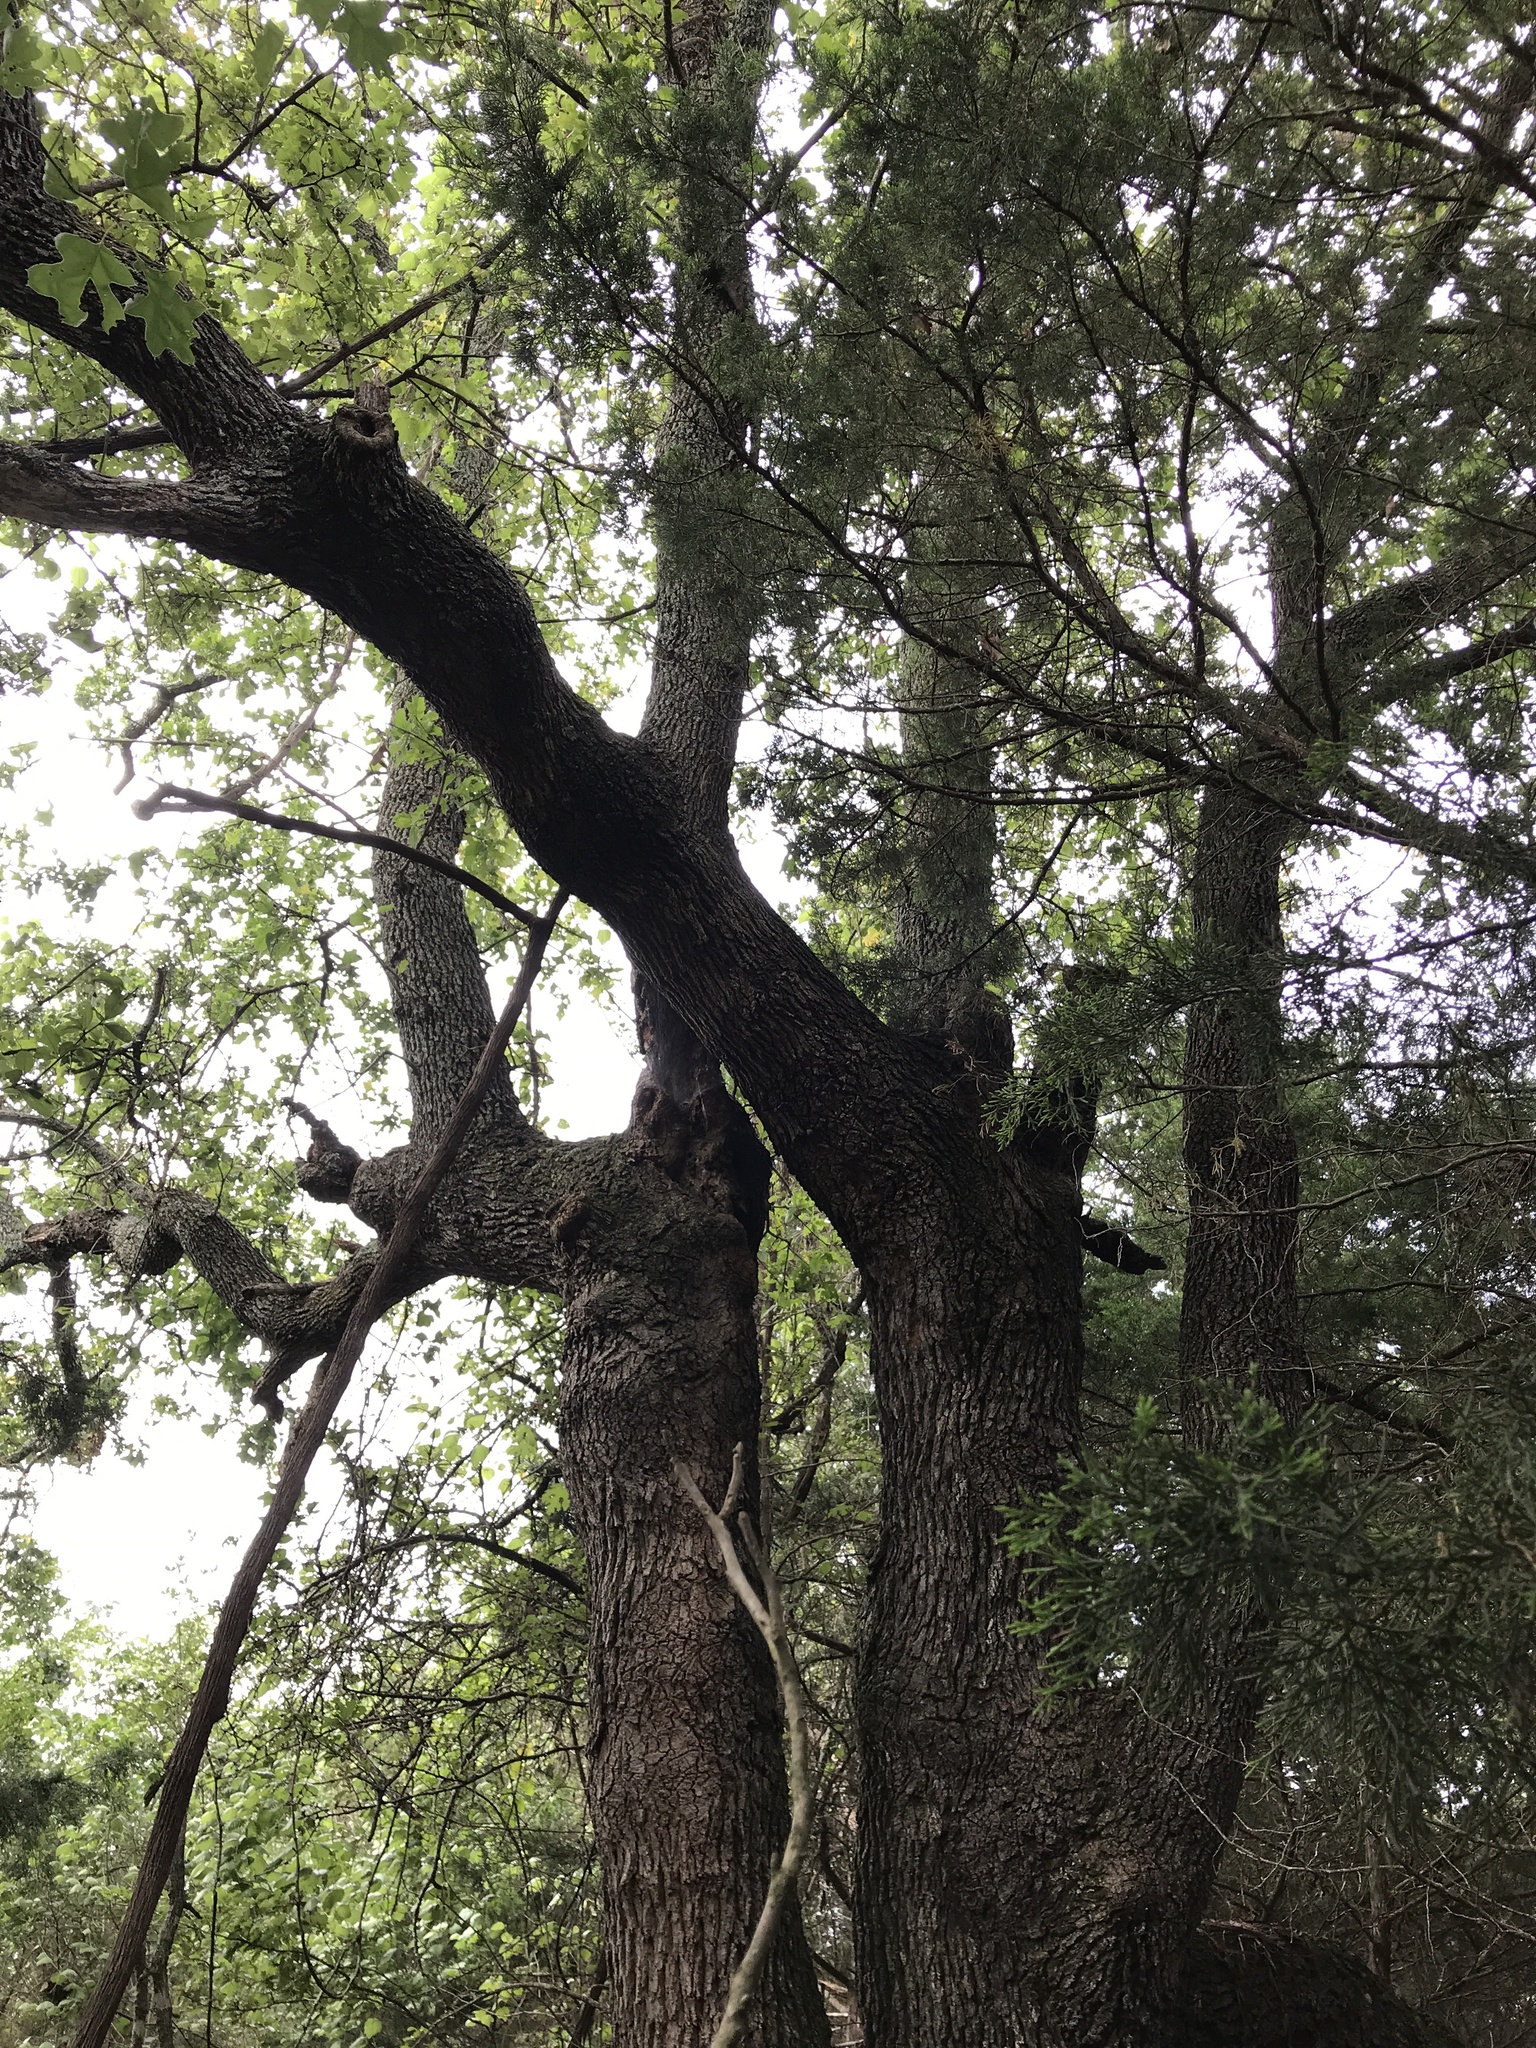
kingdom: Plantae
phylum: Tracheophyta
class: Magnoliopsida
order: Fagales
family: Fagaceae
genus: Quercus
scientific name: Quercus stellata
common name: Post oak
